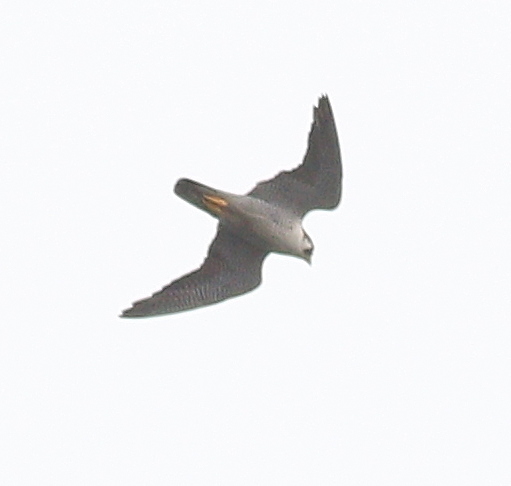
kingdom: Animalia
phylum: Chordata
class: Aves
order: Falconiformes
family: Falconidae
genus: Falco
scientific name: Falco peregrinus
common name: Peregrine falcon
